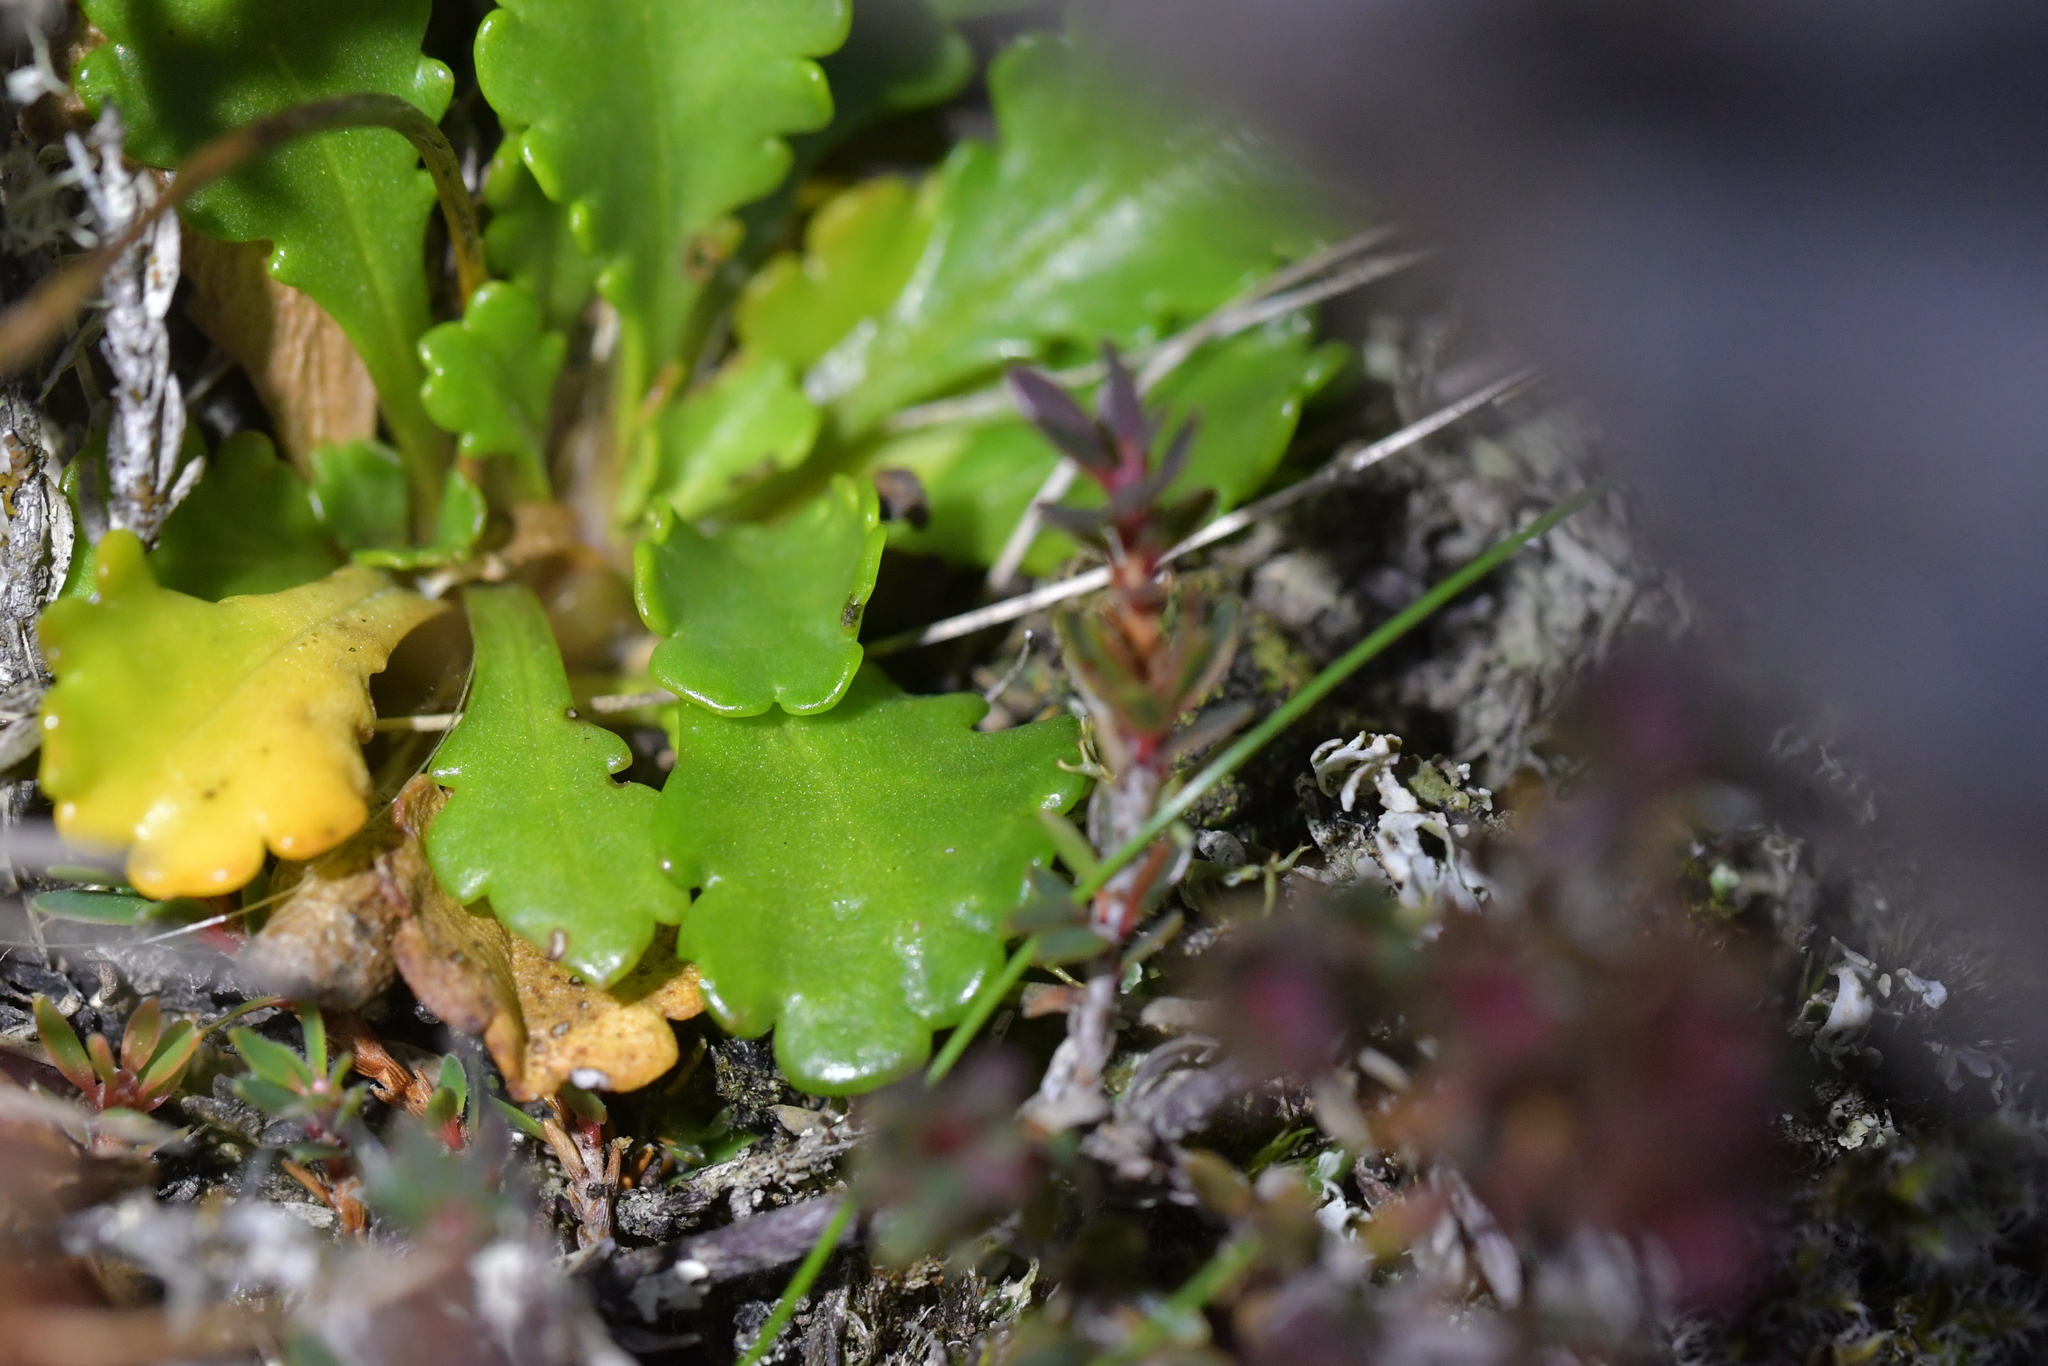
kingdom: Plantae
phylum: Tracheophyta
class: Magnoliopsida
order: Asterales
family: Asteraceae
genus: Brachyscome
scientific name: Brachyscome sinclairii
